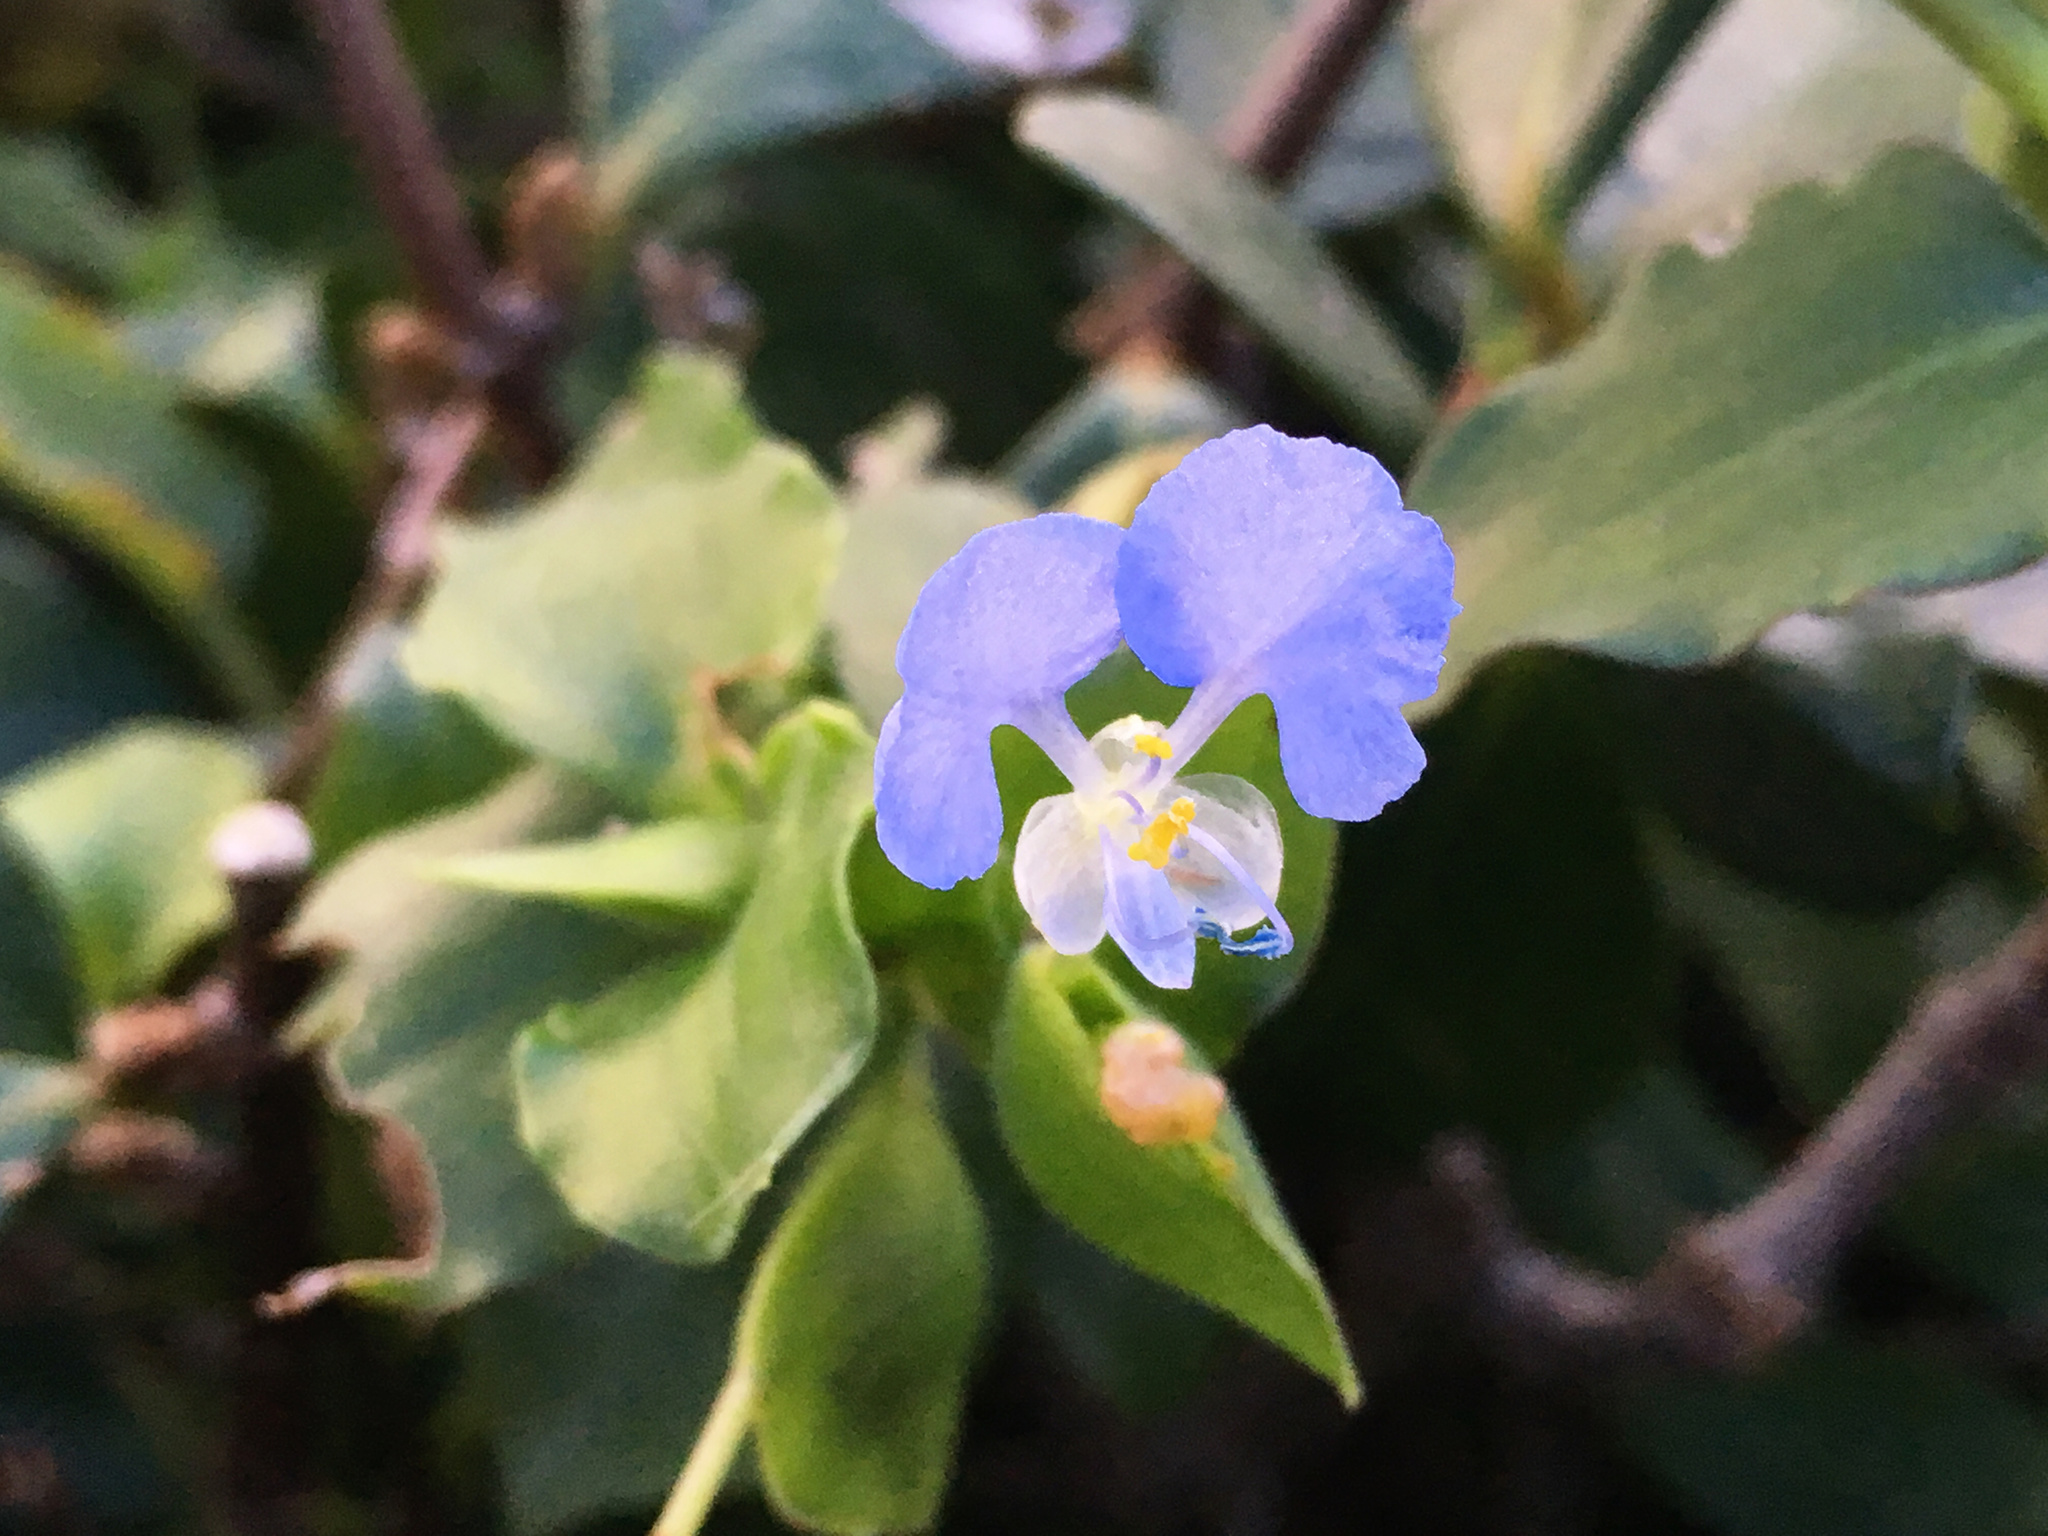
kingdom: Plantae
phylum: Tracheophyta
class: Liliopsida
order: Commelinales
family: Commelinaceae
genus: Commelina
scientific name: Commelina benghalensis
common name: Jio
